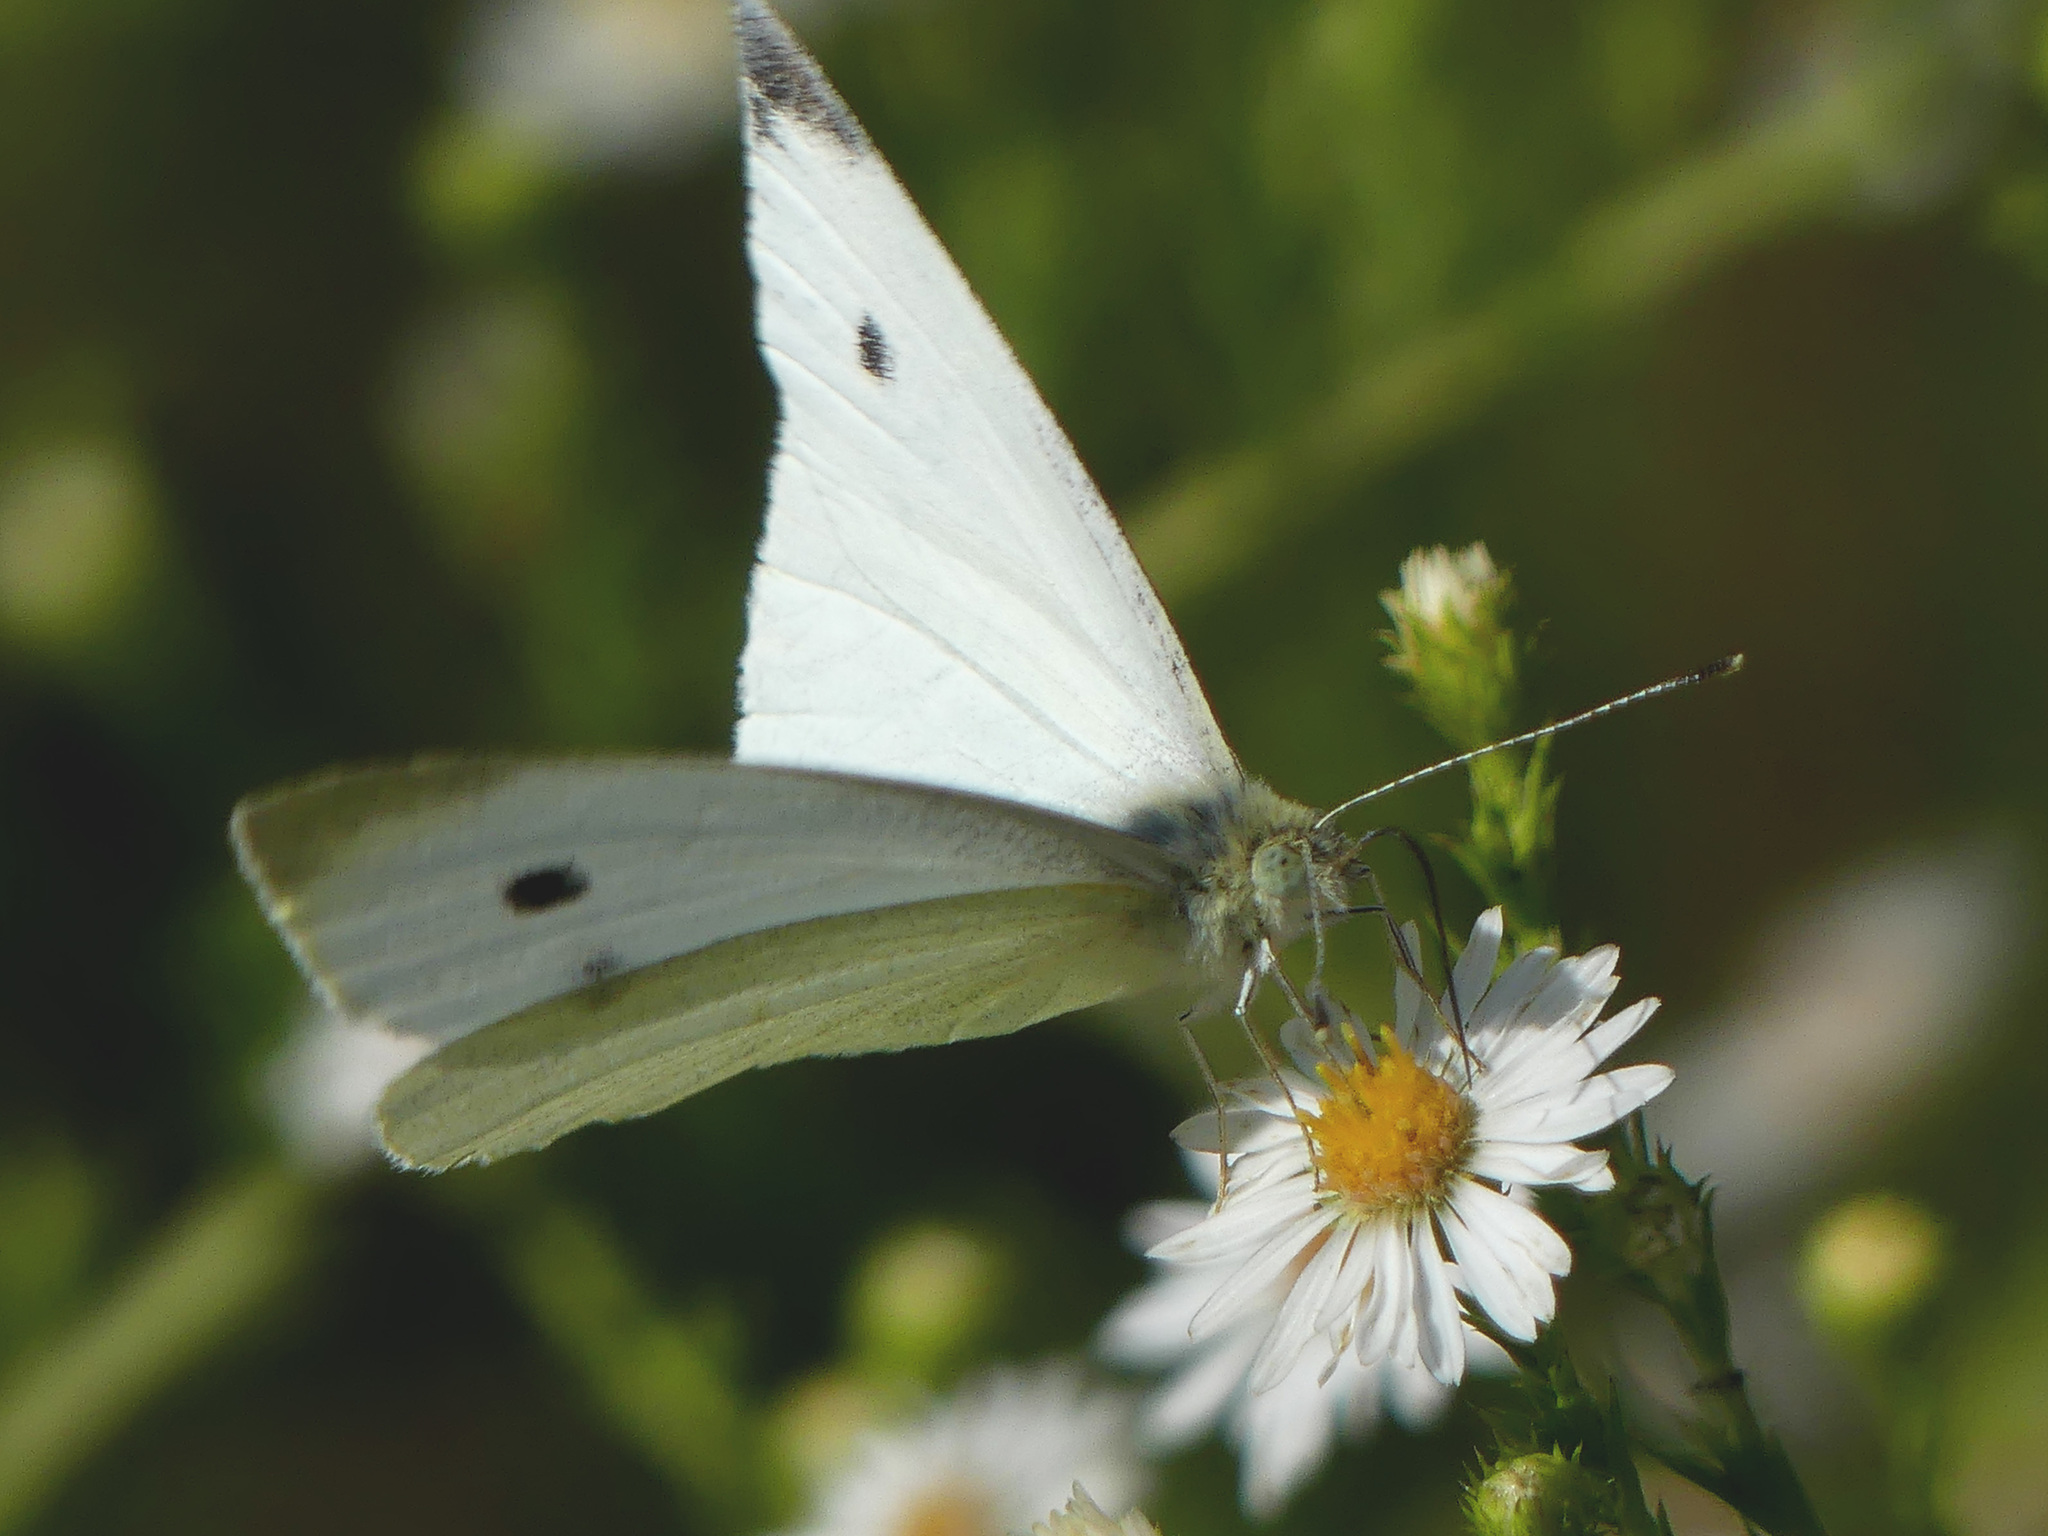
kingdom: Animalia
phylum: Arthropoda
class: Insecta
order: Lepidoptera
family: Pieridae
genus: Pieris
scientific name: Pieris rapae
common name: Small white
